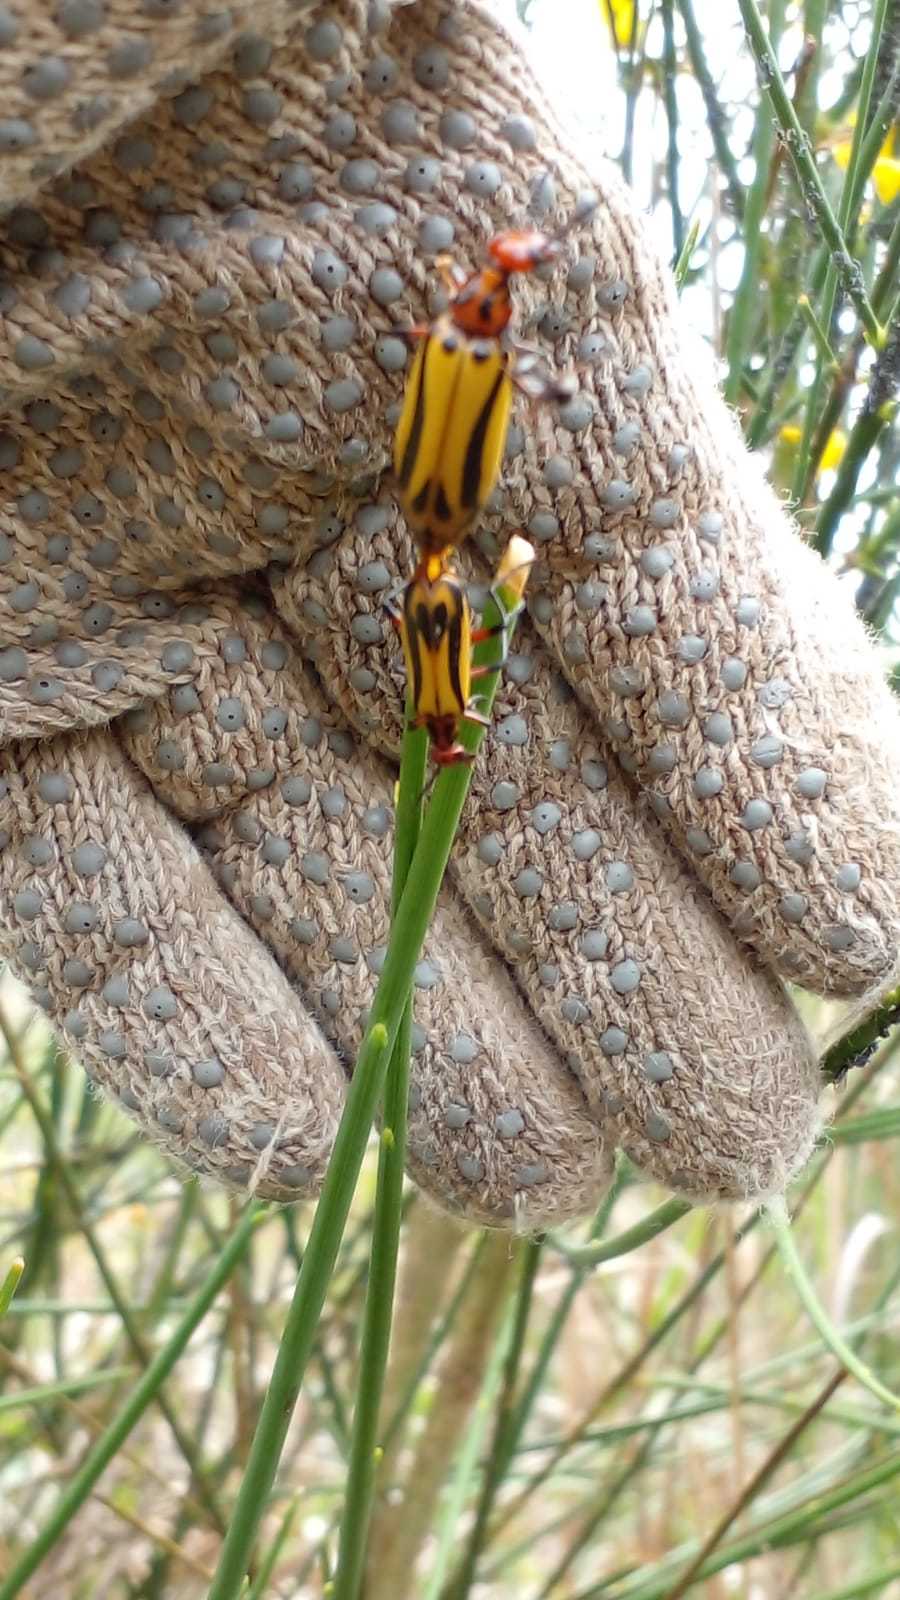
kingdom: Animalia
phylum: Arthropoda
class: Insecta
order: Coleoptera
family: Meloidae
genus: Pyrota
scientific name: Pyrota
